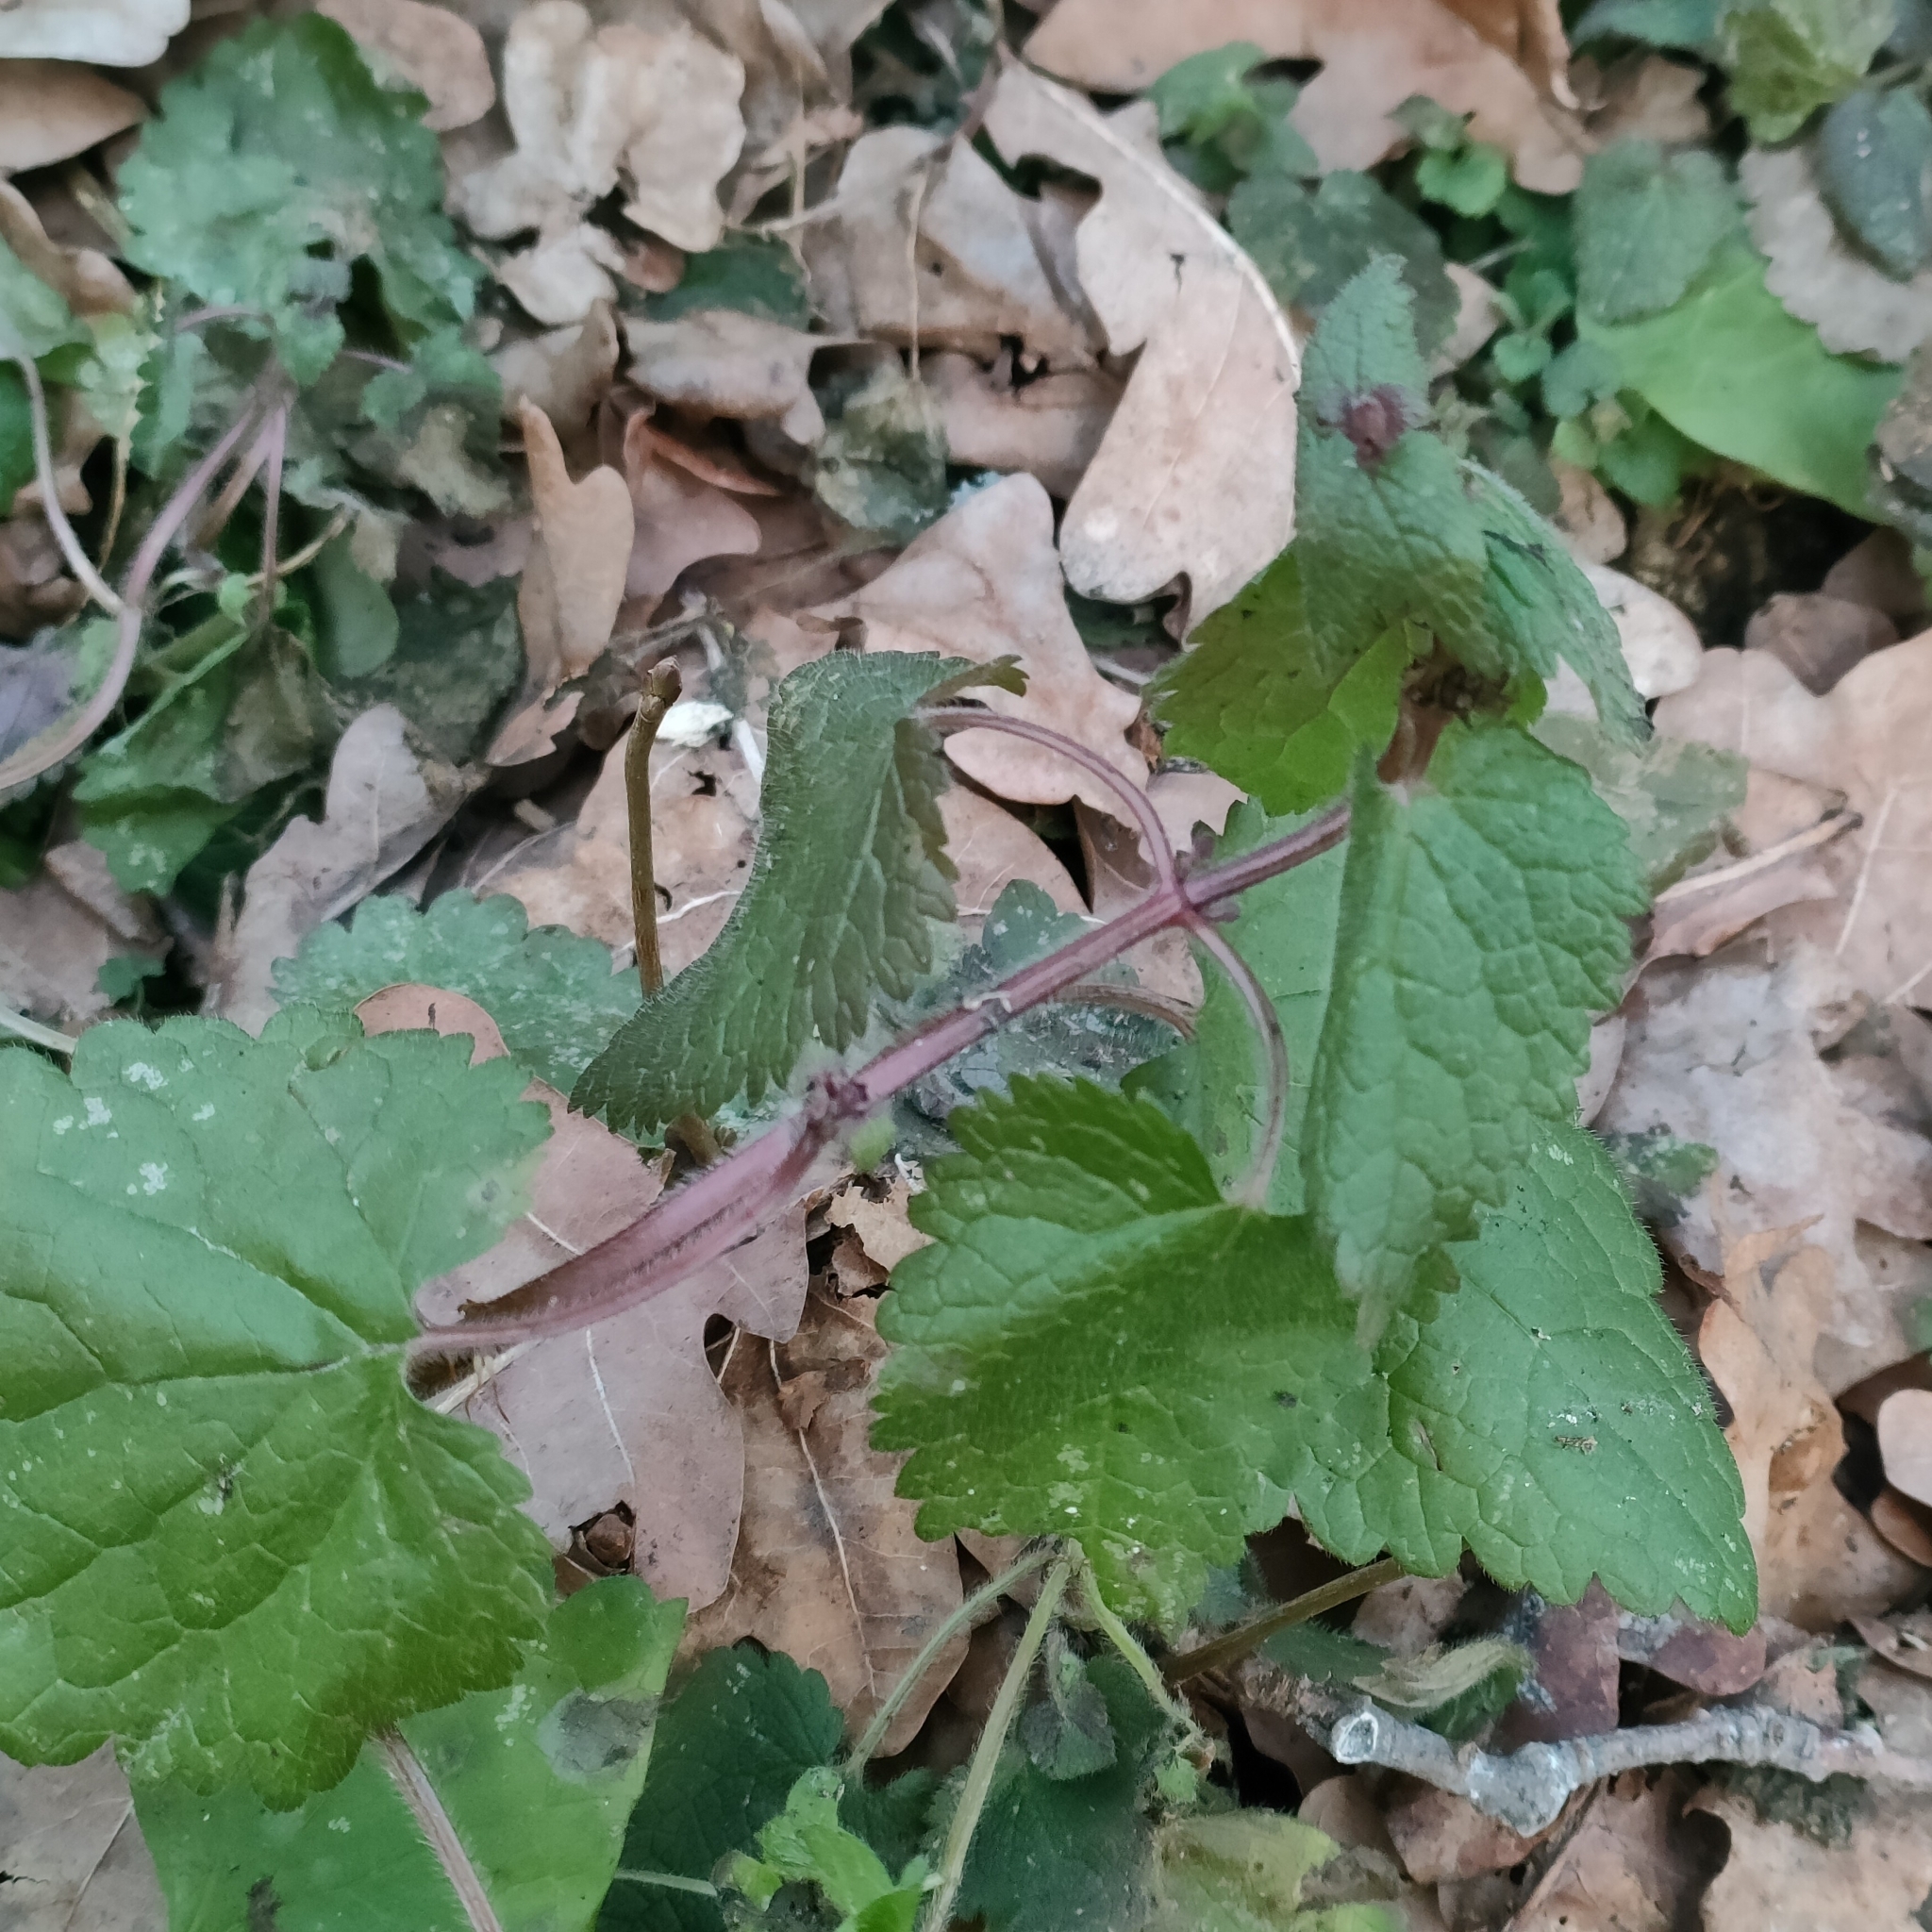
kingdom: Plantae
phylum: Tracheophyta
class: Magnoliopsida
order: Lamiales
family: Lamiaceae
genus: Lamium
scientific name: Lamium maculatum
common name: Spotted dead-nettle
